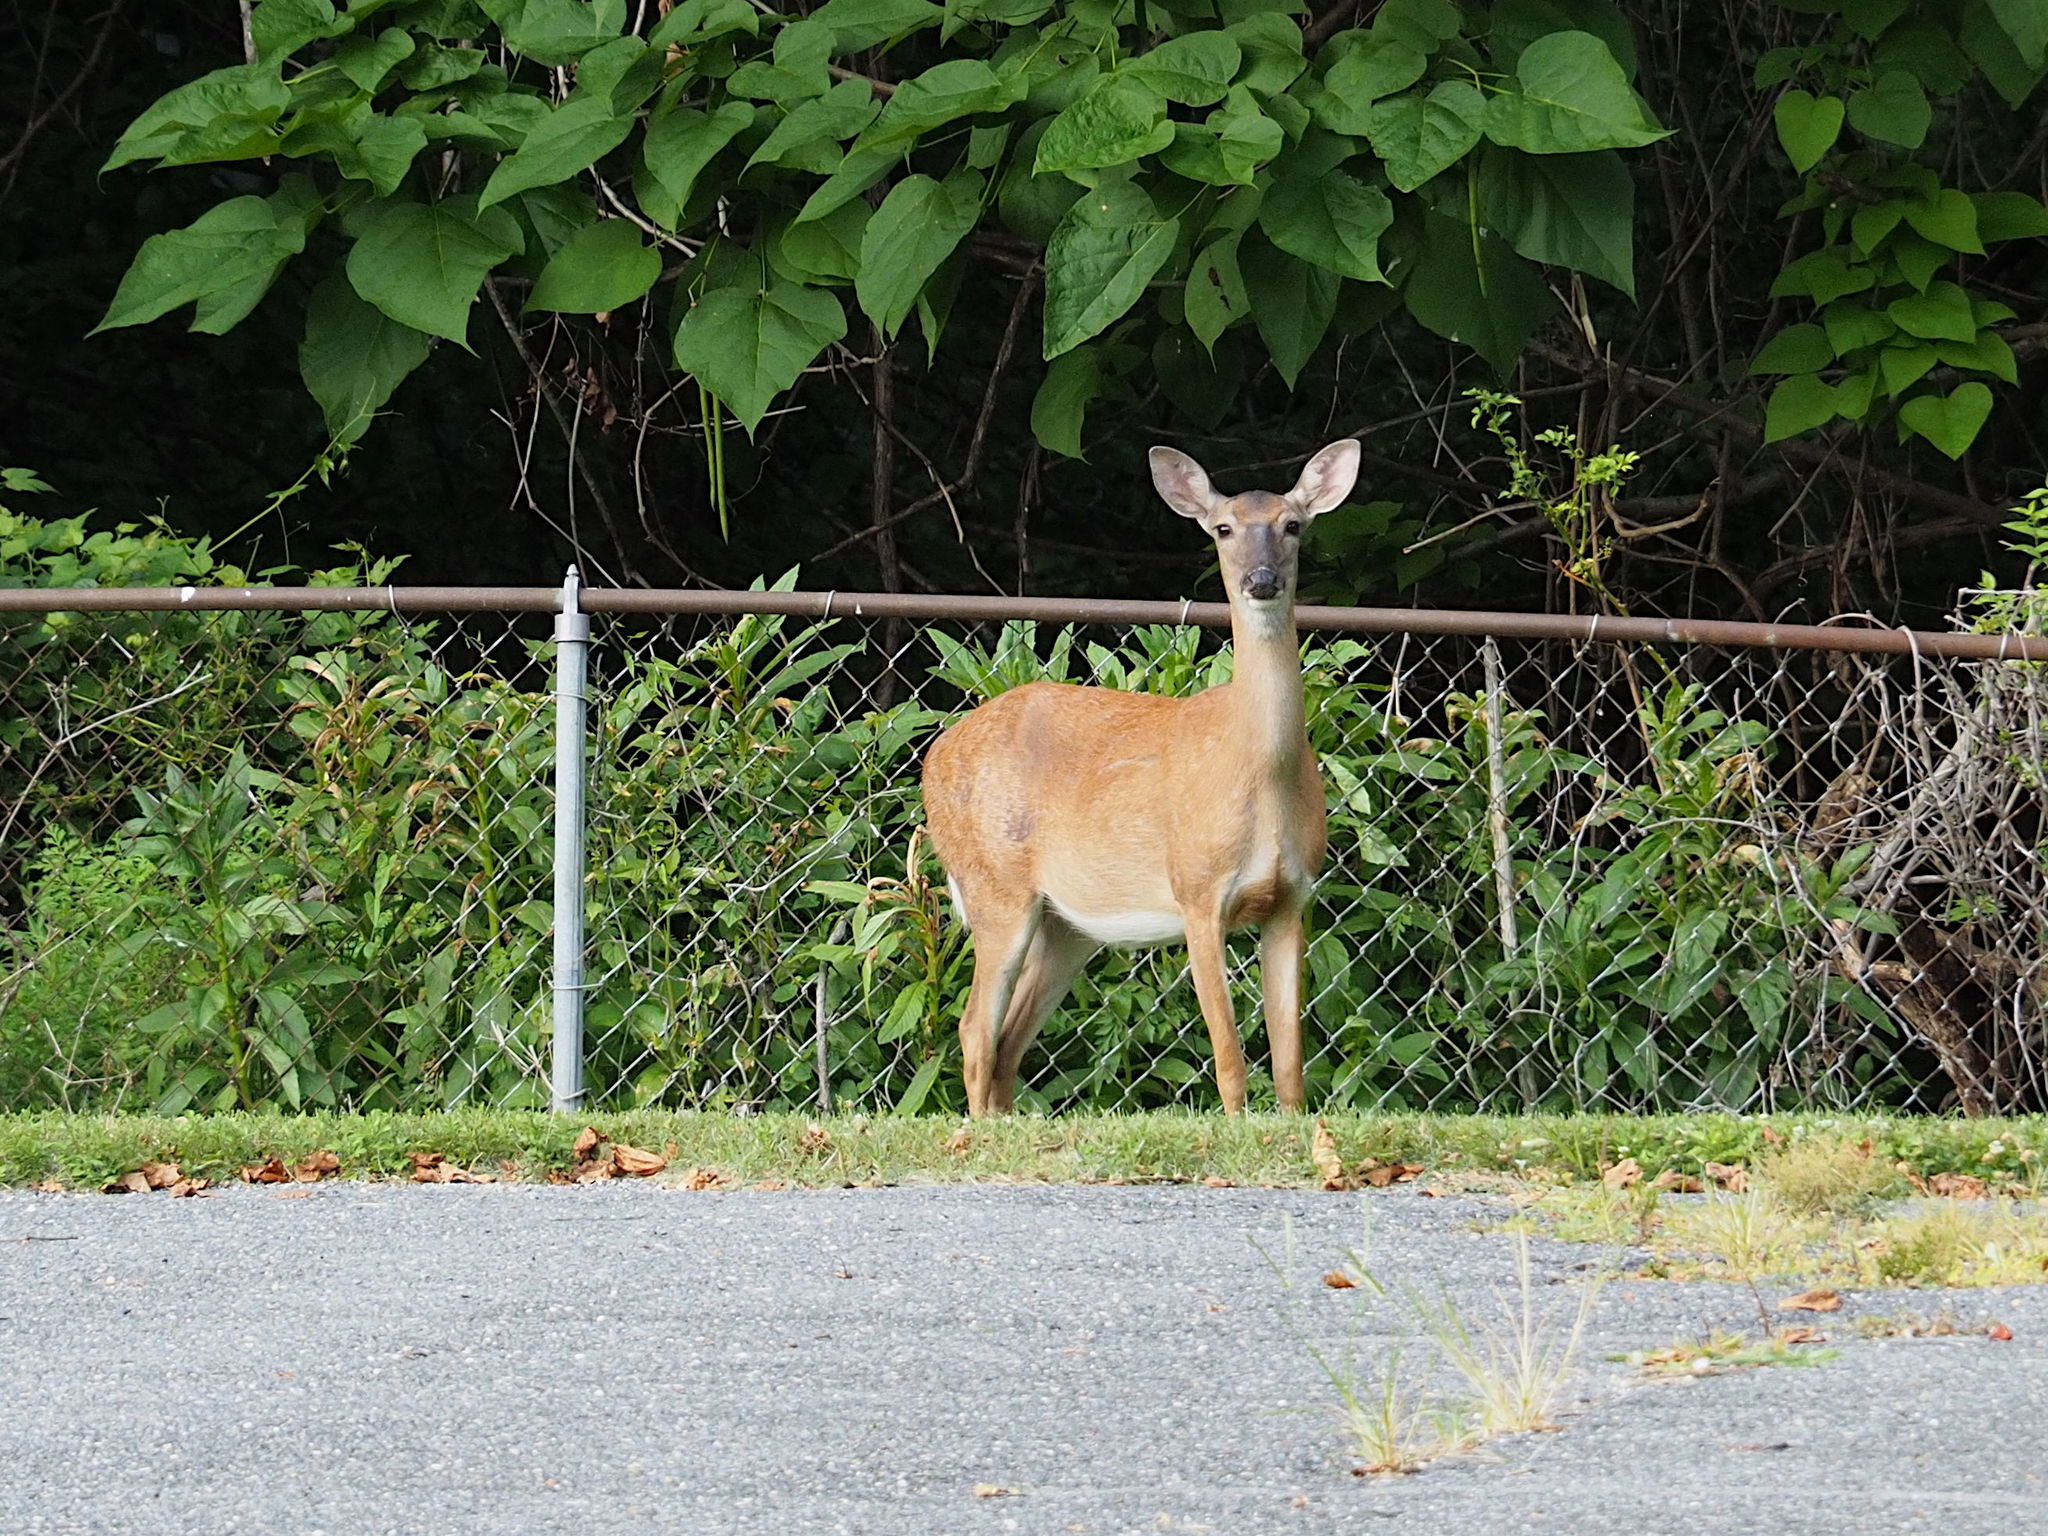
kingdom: Animalia
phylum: Chordata
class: Mammalia
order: Artiodactyla
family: Cervidae
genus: Odocoileus
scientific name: Odocoileus virginianus
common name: White-tailed deer
